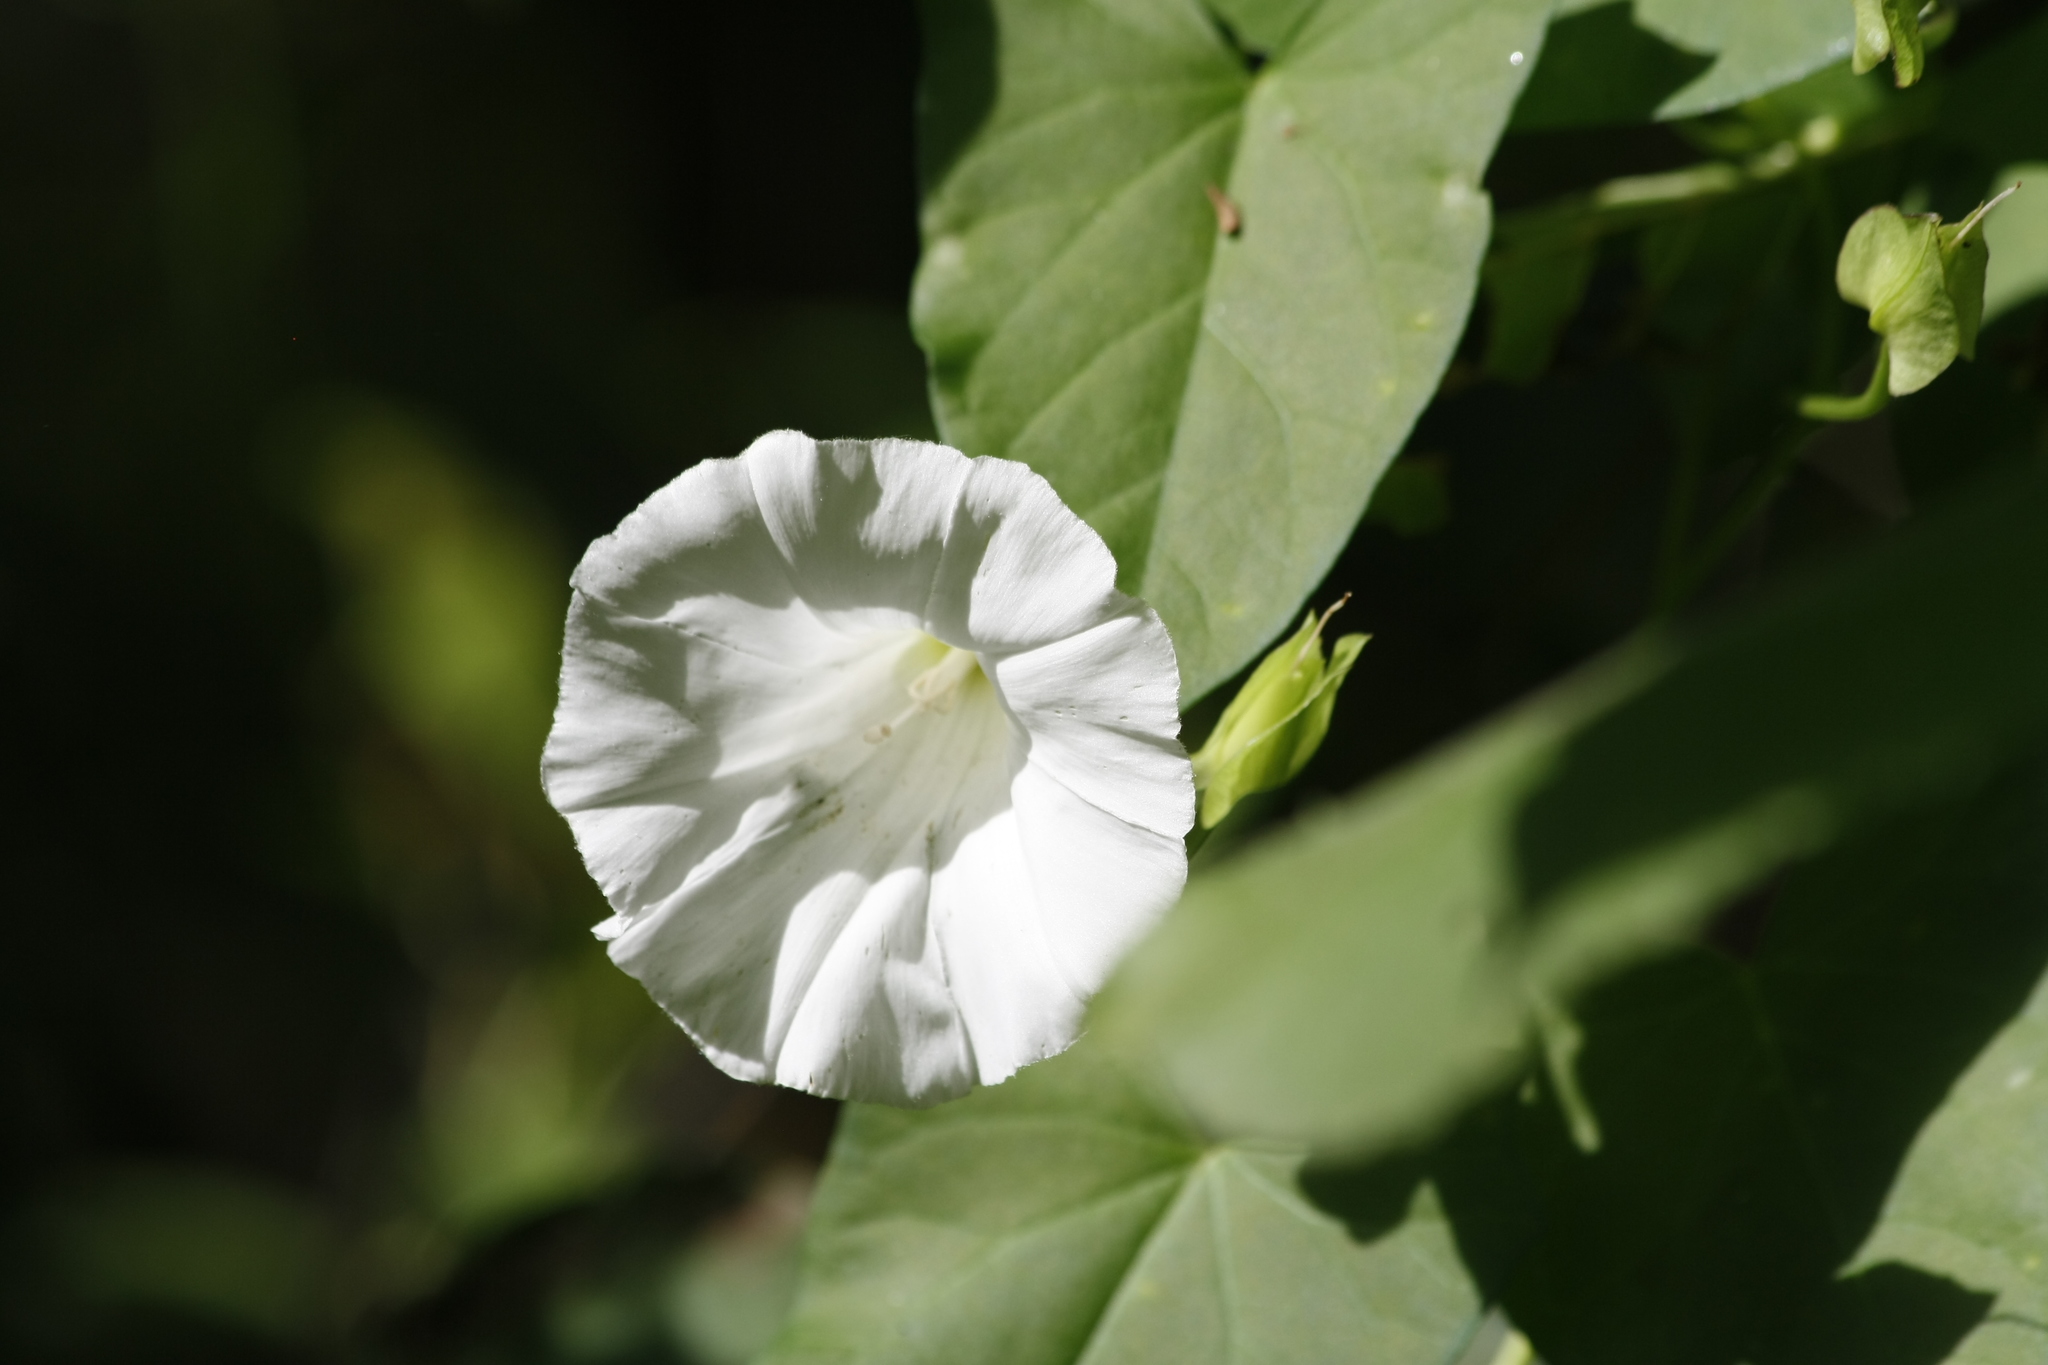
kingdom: Plantae
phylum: Tracheophyta
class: Magnoliopsida
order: Solanales
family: Convolvulaceae
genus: Calystegia
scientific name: Calystegia sepium
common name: Hedge bindweed
